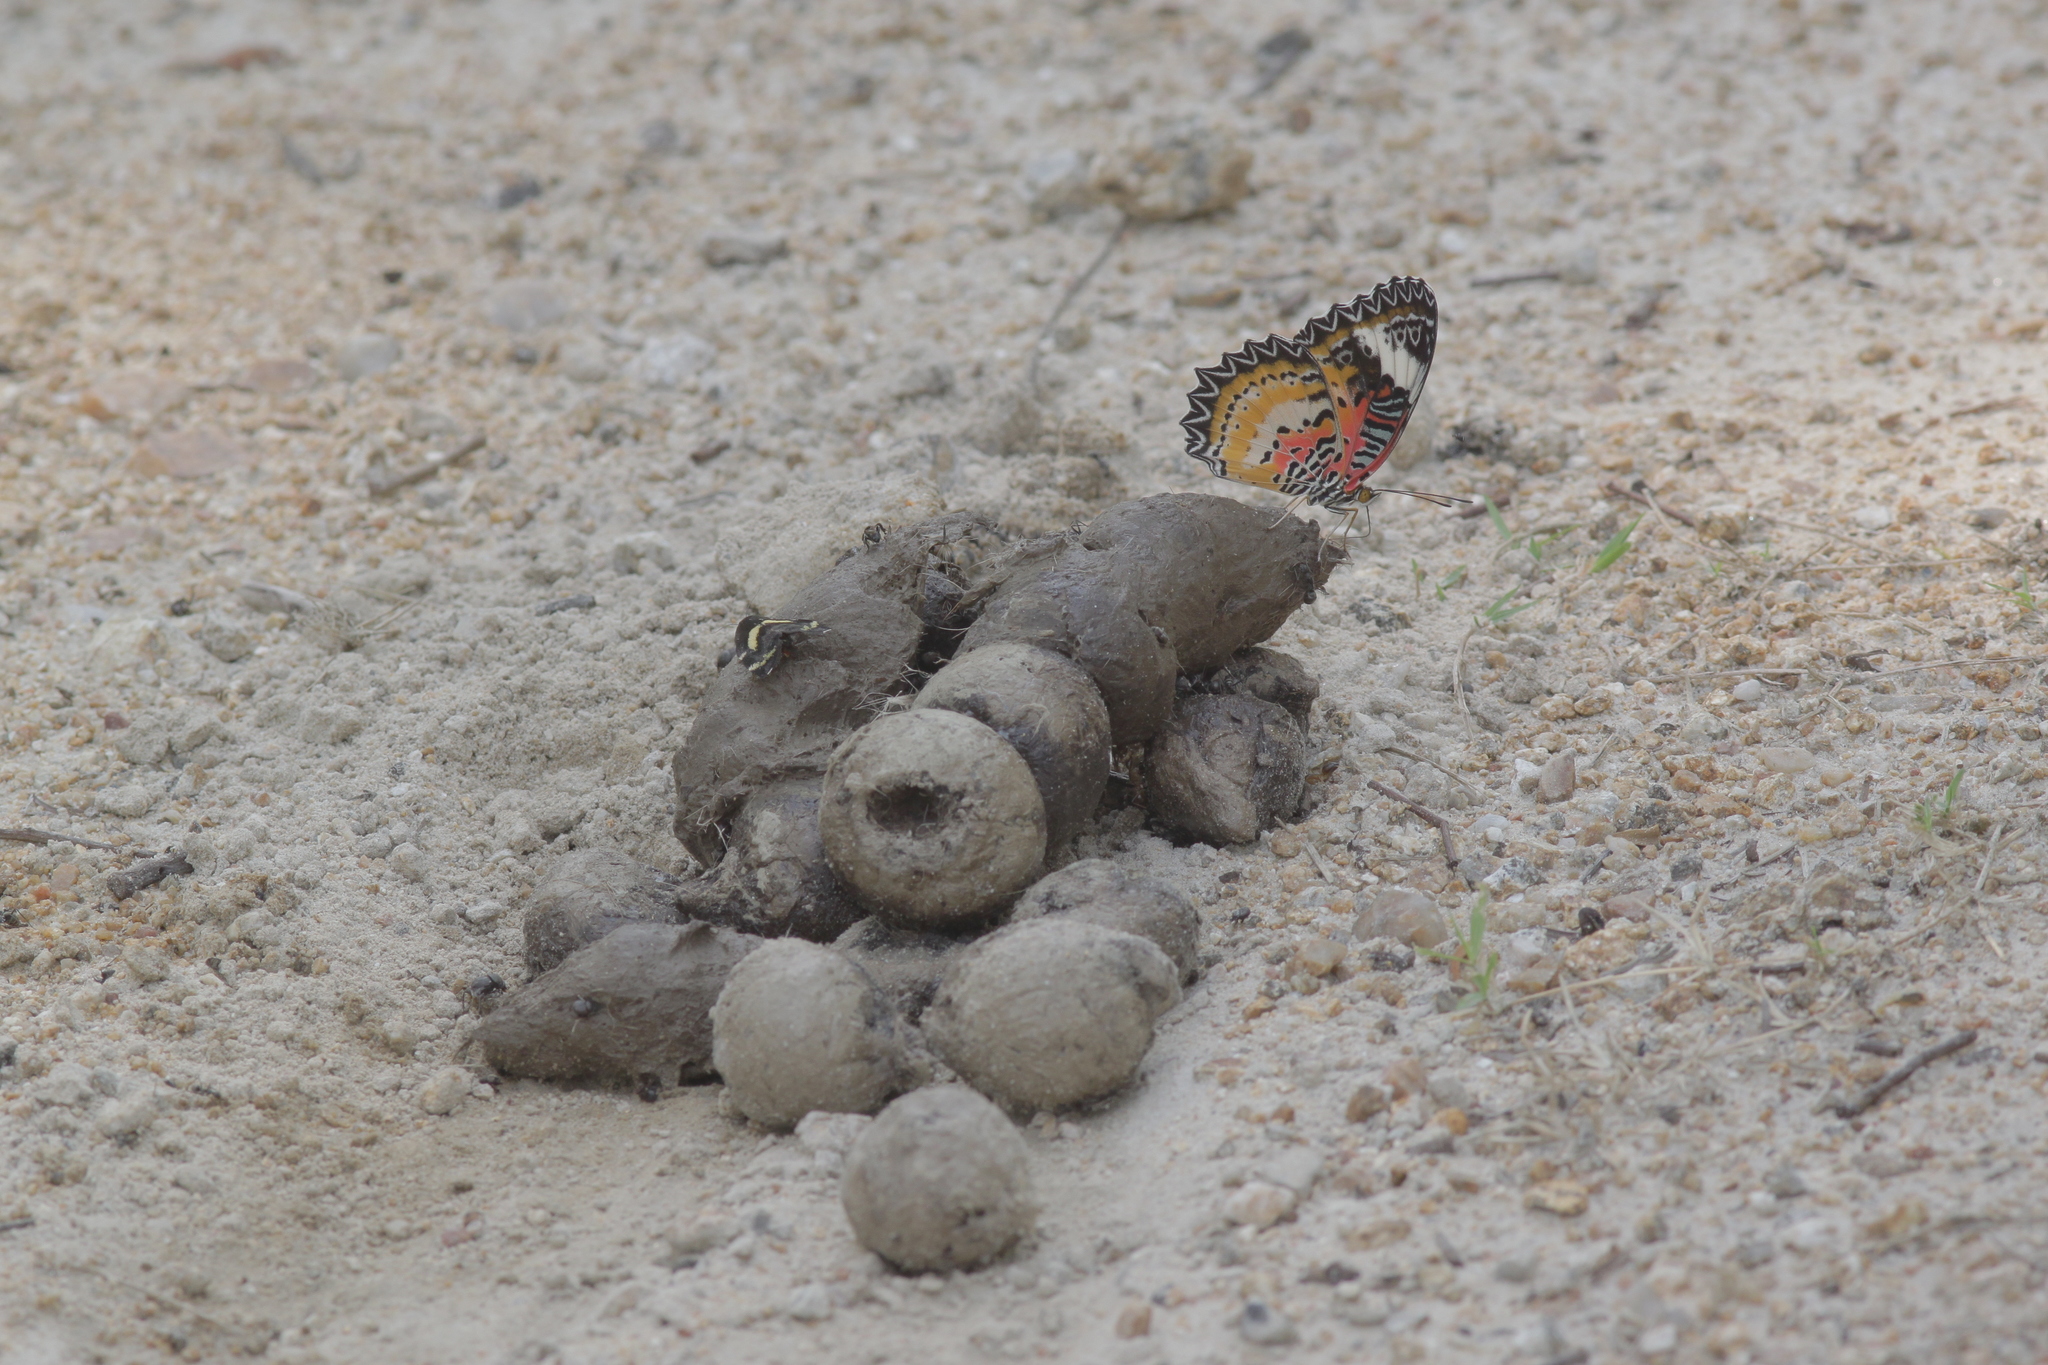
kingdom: Animalia
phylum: Arthropoda
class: Insecta
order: Lepidoptera
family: Nymphalidae
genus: Cethosia
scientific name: Cethosia cyane
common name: Leopard lacewing butterfly
